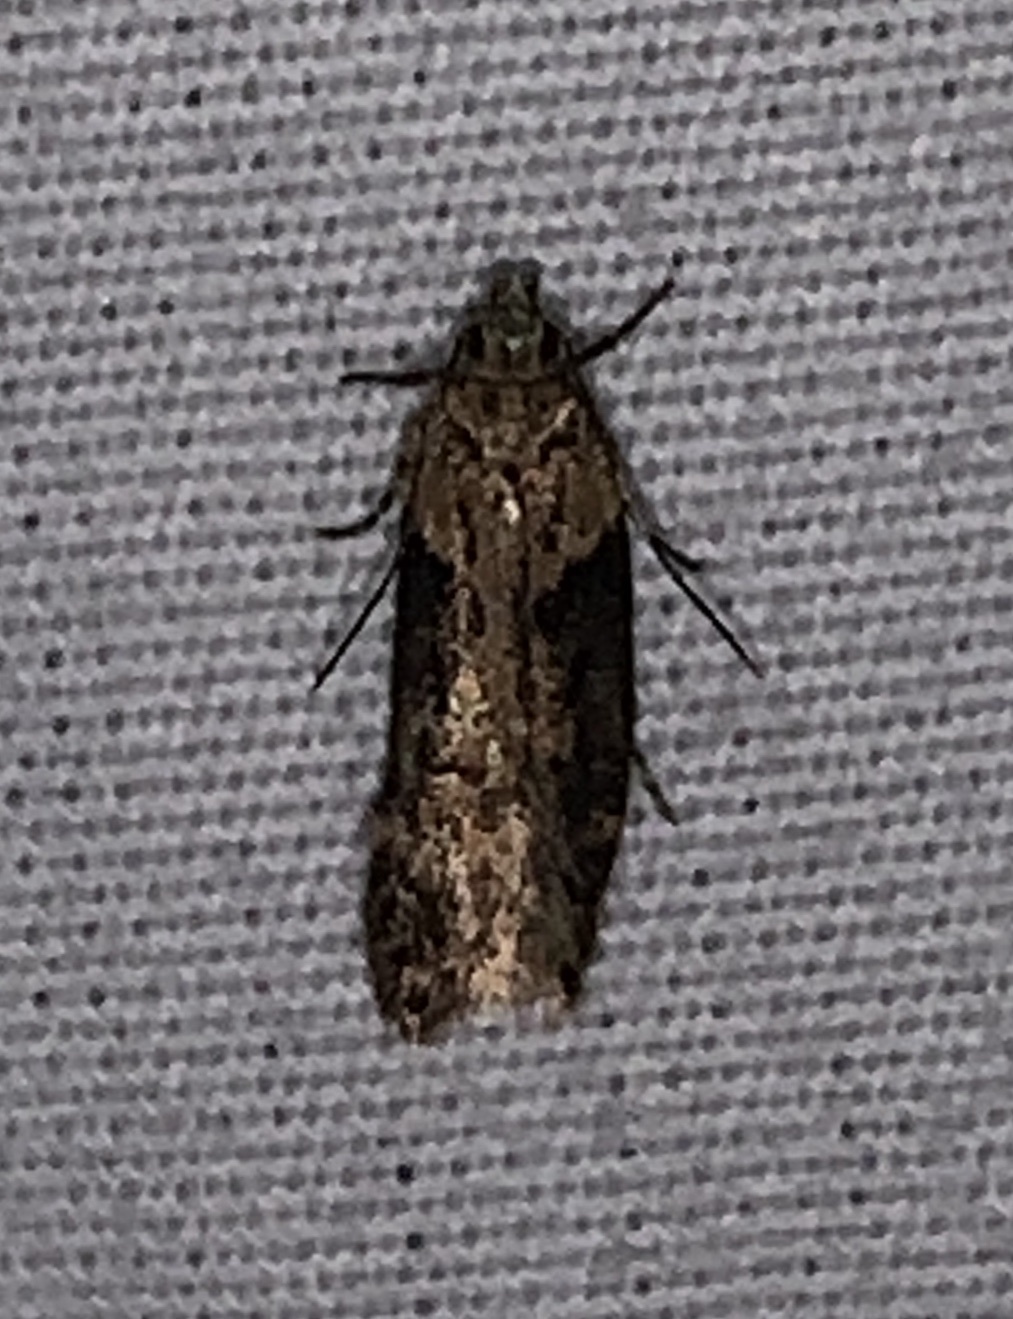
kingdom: Animalia
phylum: Arthropoda
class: Insecta
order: Lepidoptera
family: Gelechiidae
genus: Chionodes
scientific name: Chionodes mediofuscella
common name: Black-smudged chionodes moth
